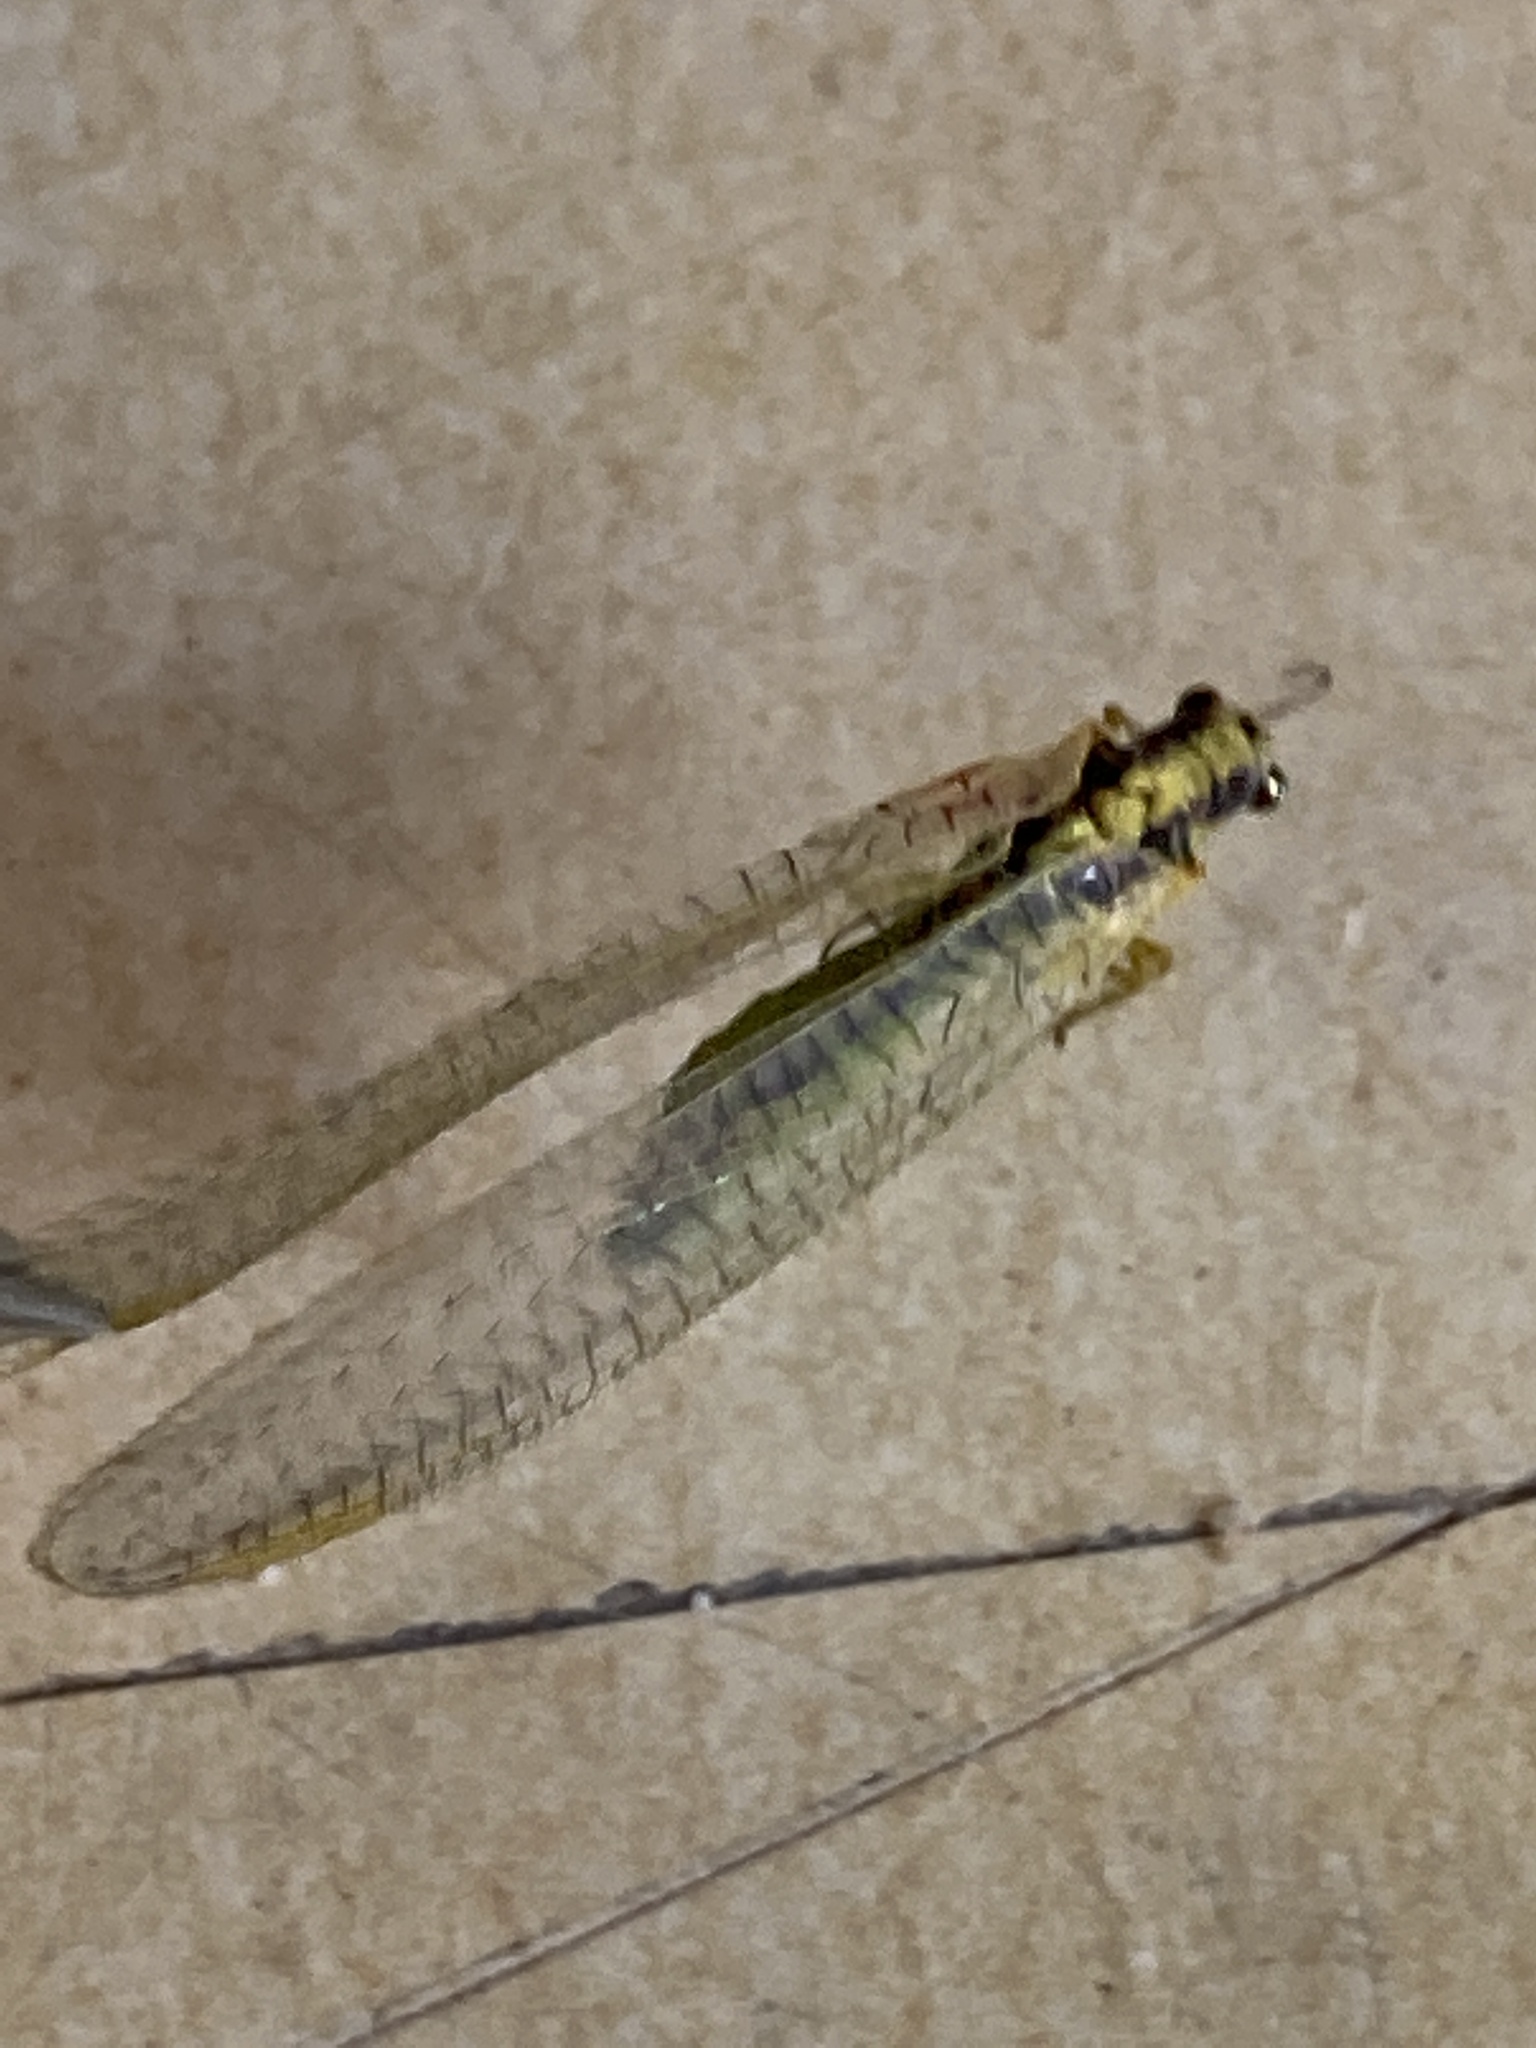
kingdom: Animalia
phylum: Arthropoda
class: Insecta
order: Neuroptera
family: Chrysopidae
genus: Chrysopa
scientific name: Chrysopa perla
